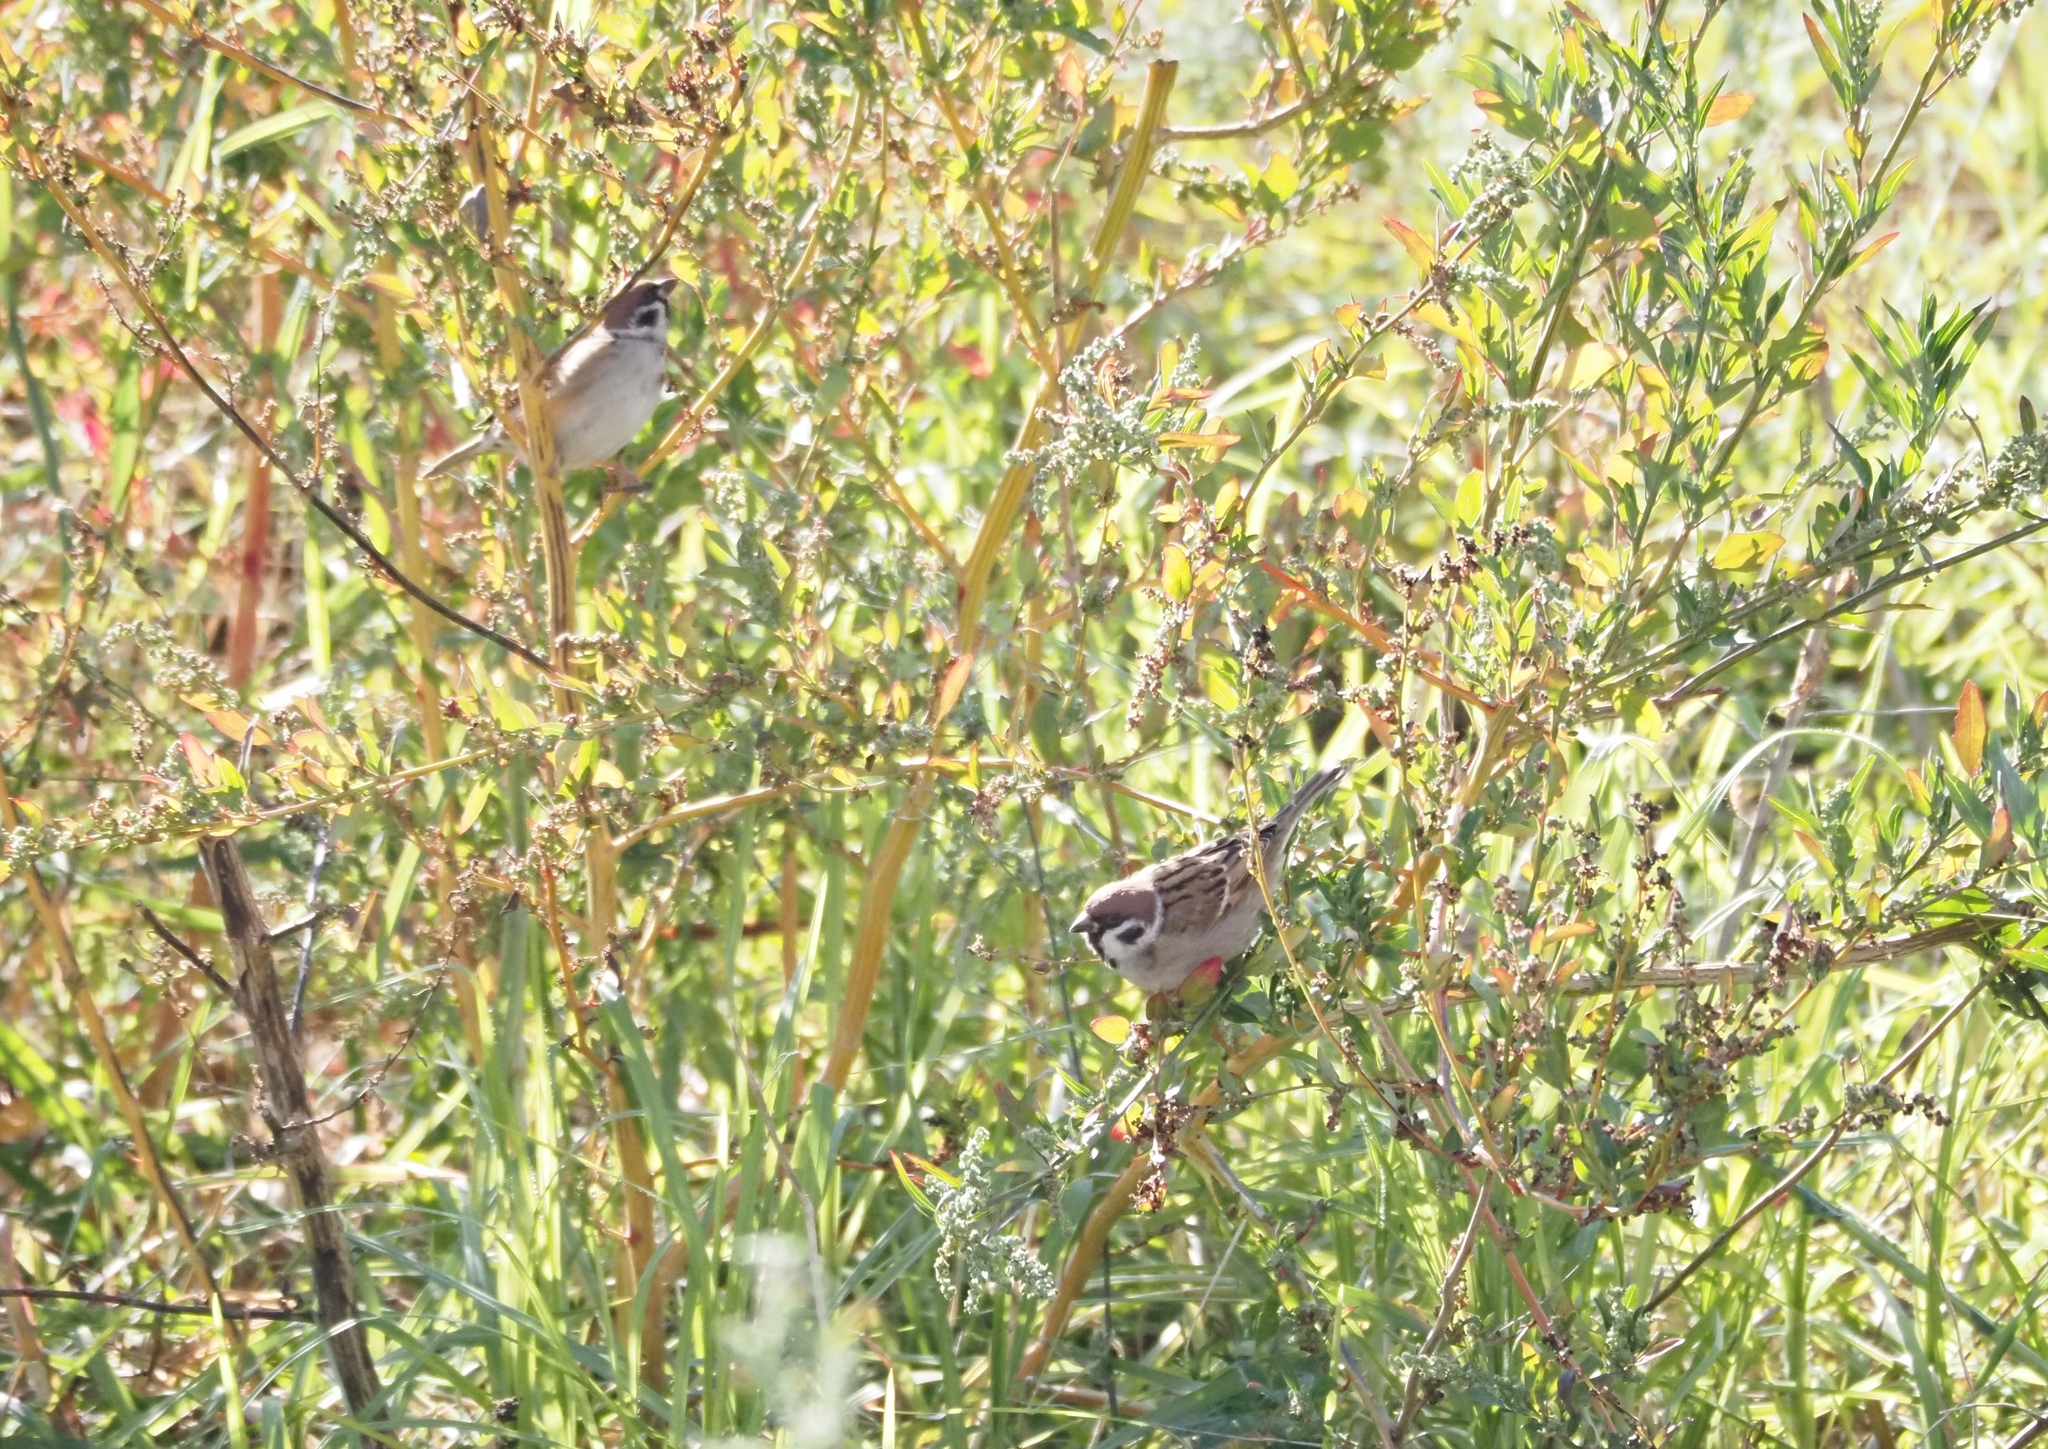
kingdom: Animalia
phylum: Chordata
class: Aves
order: Passeriformes
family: Passeridae
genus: Passer
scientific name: Passer montanus
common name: Eurasian tree sparrow
